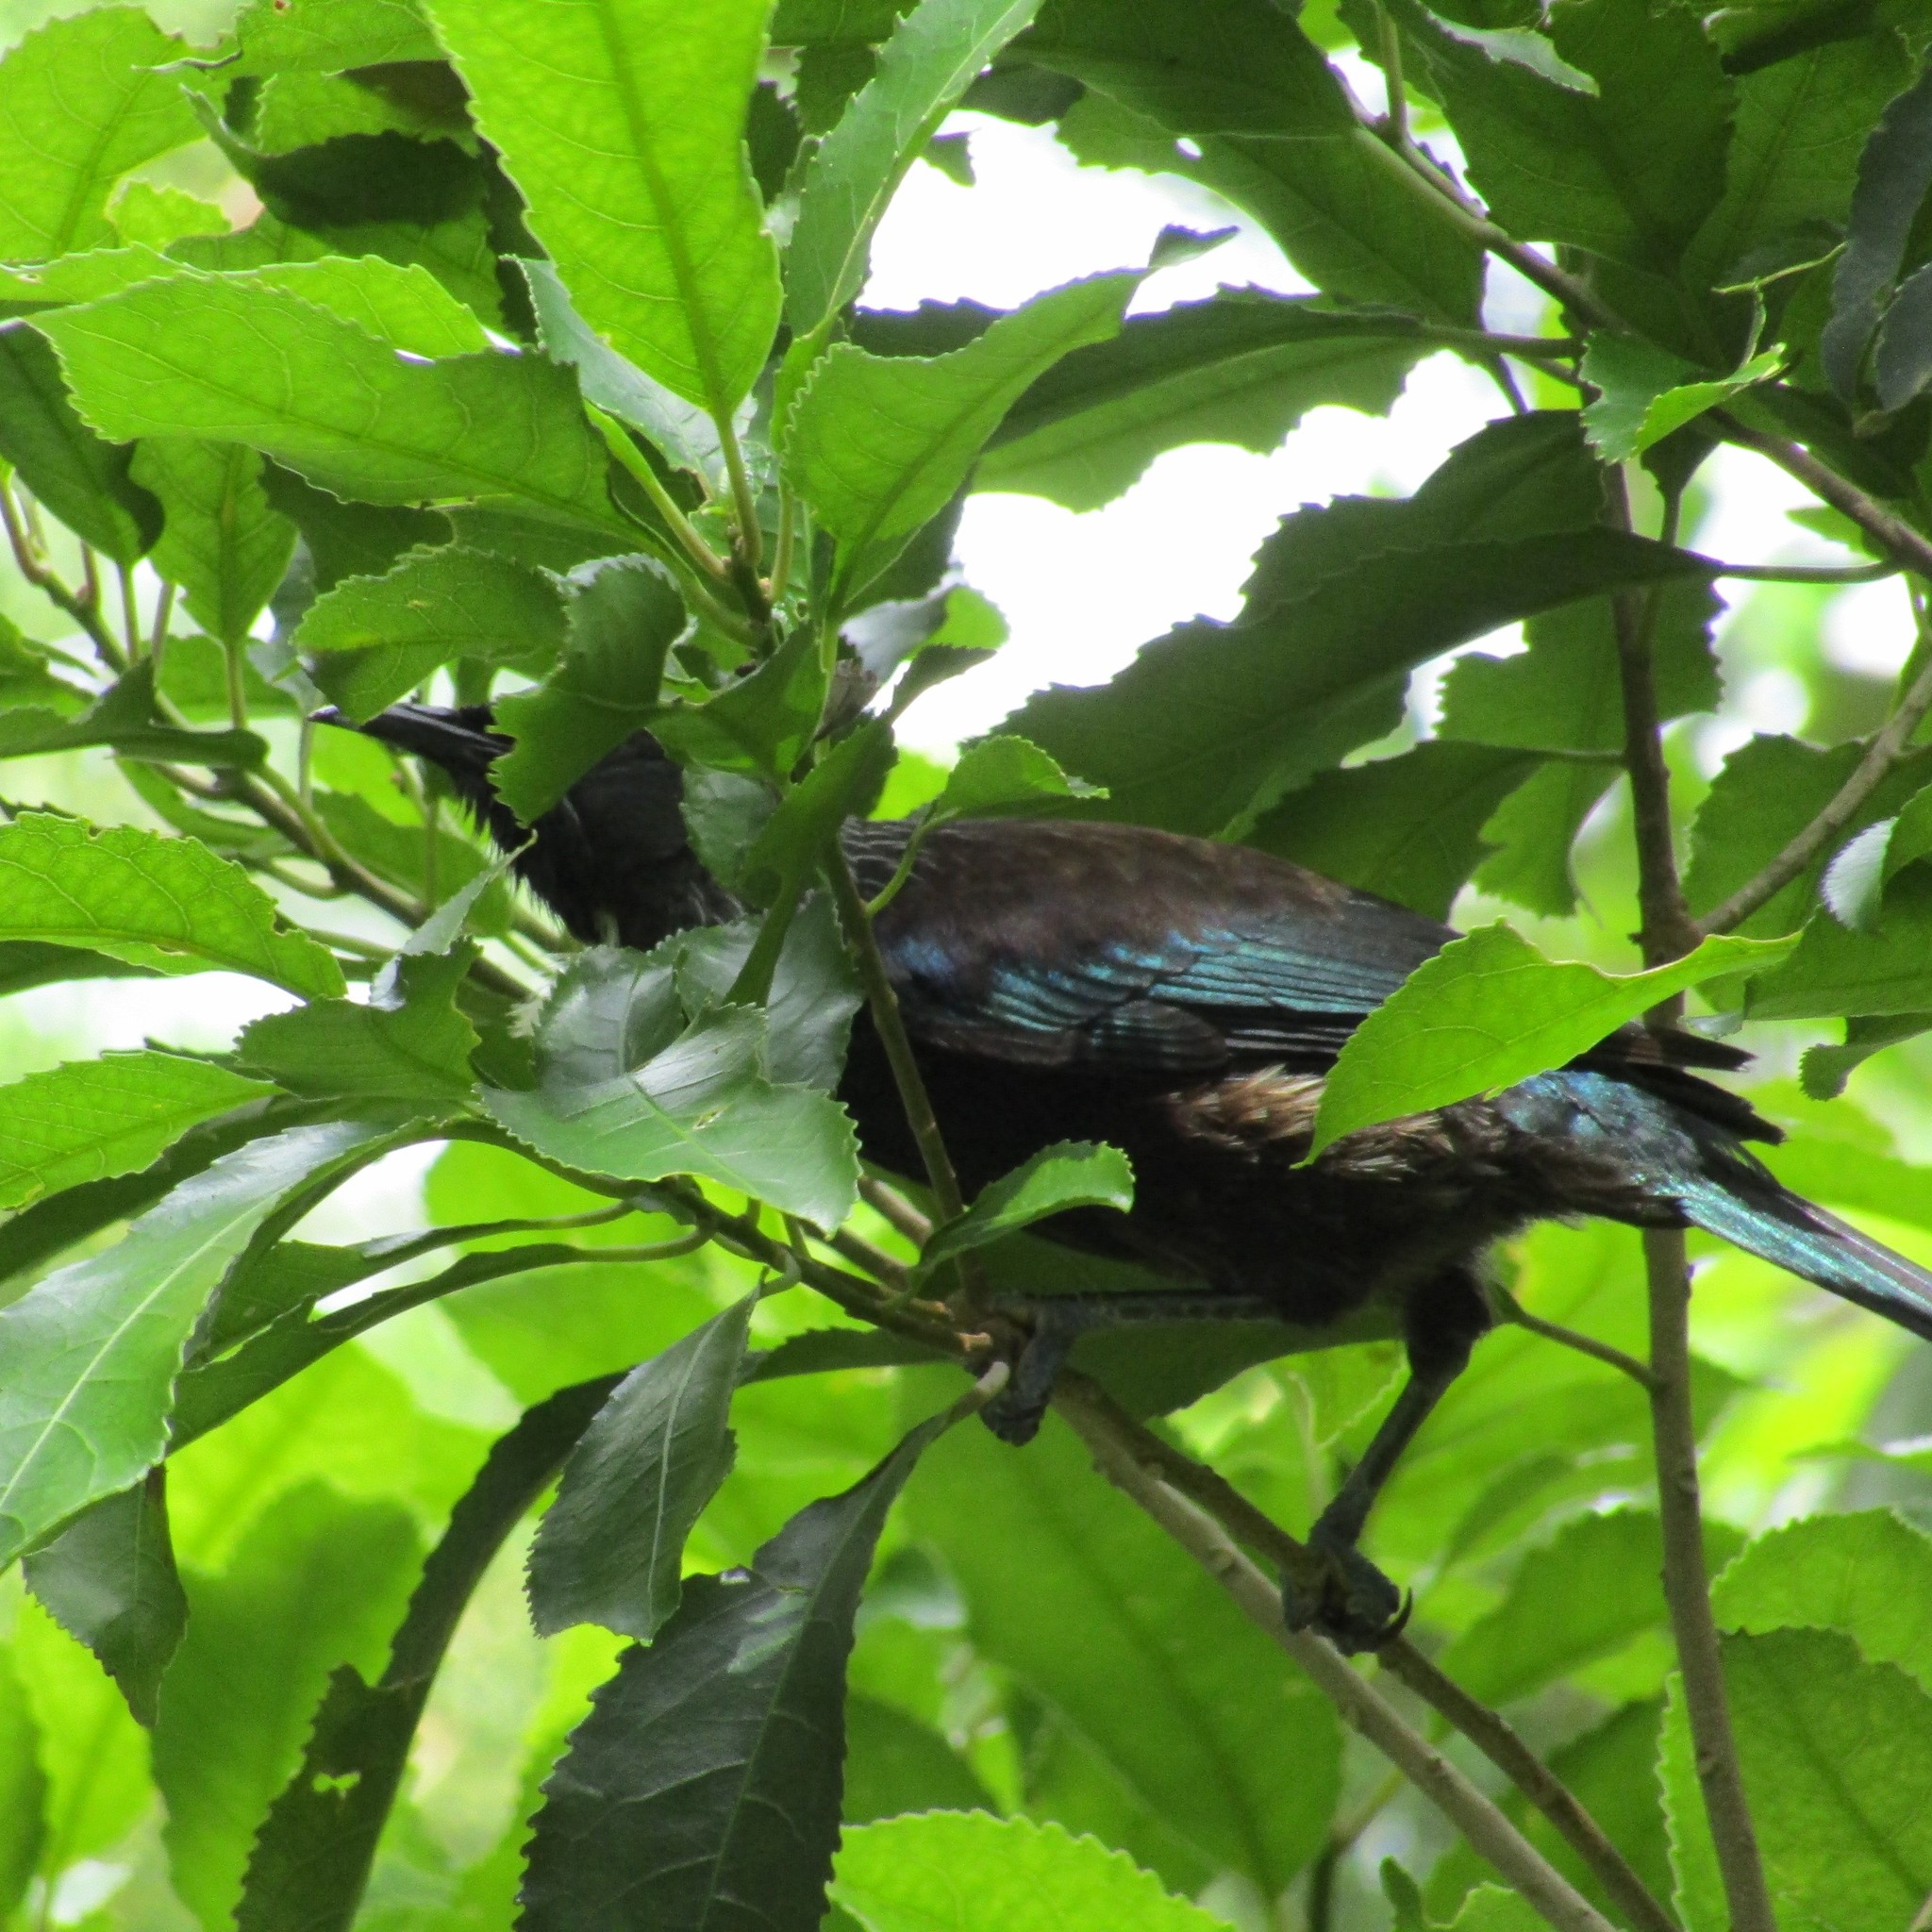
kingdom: Animalia
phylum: Chordata
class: Aves
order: Passeriformes
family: Meliphagidae
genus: Prosthemadera
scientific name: Prosthemadera novaeseelandiae
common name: Tui
